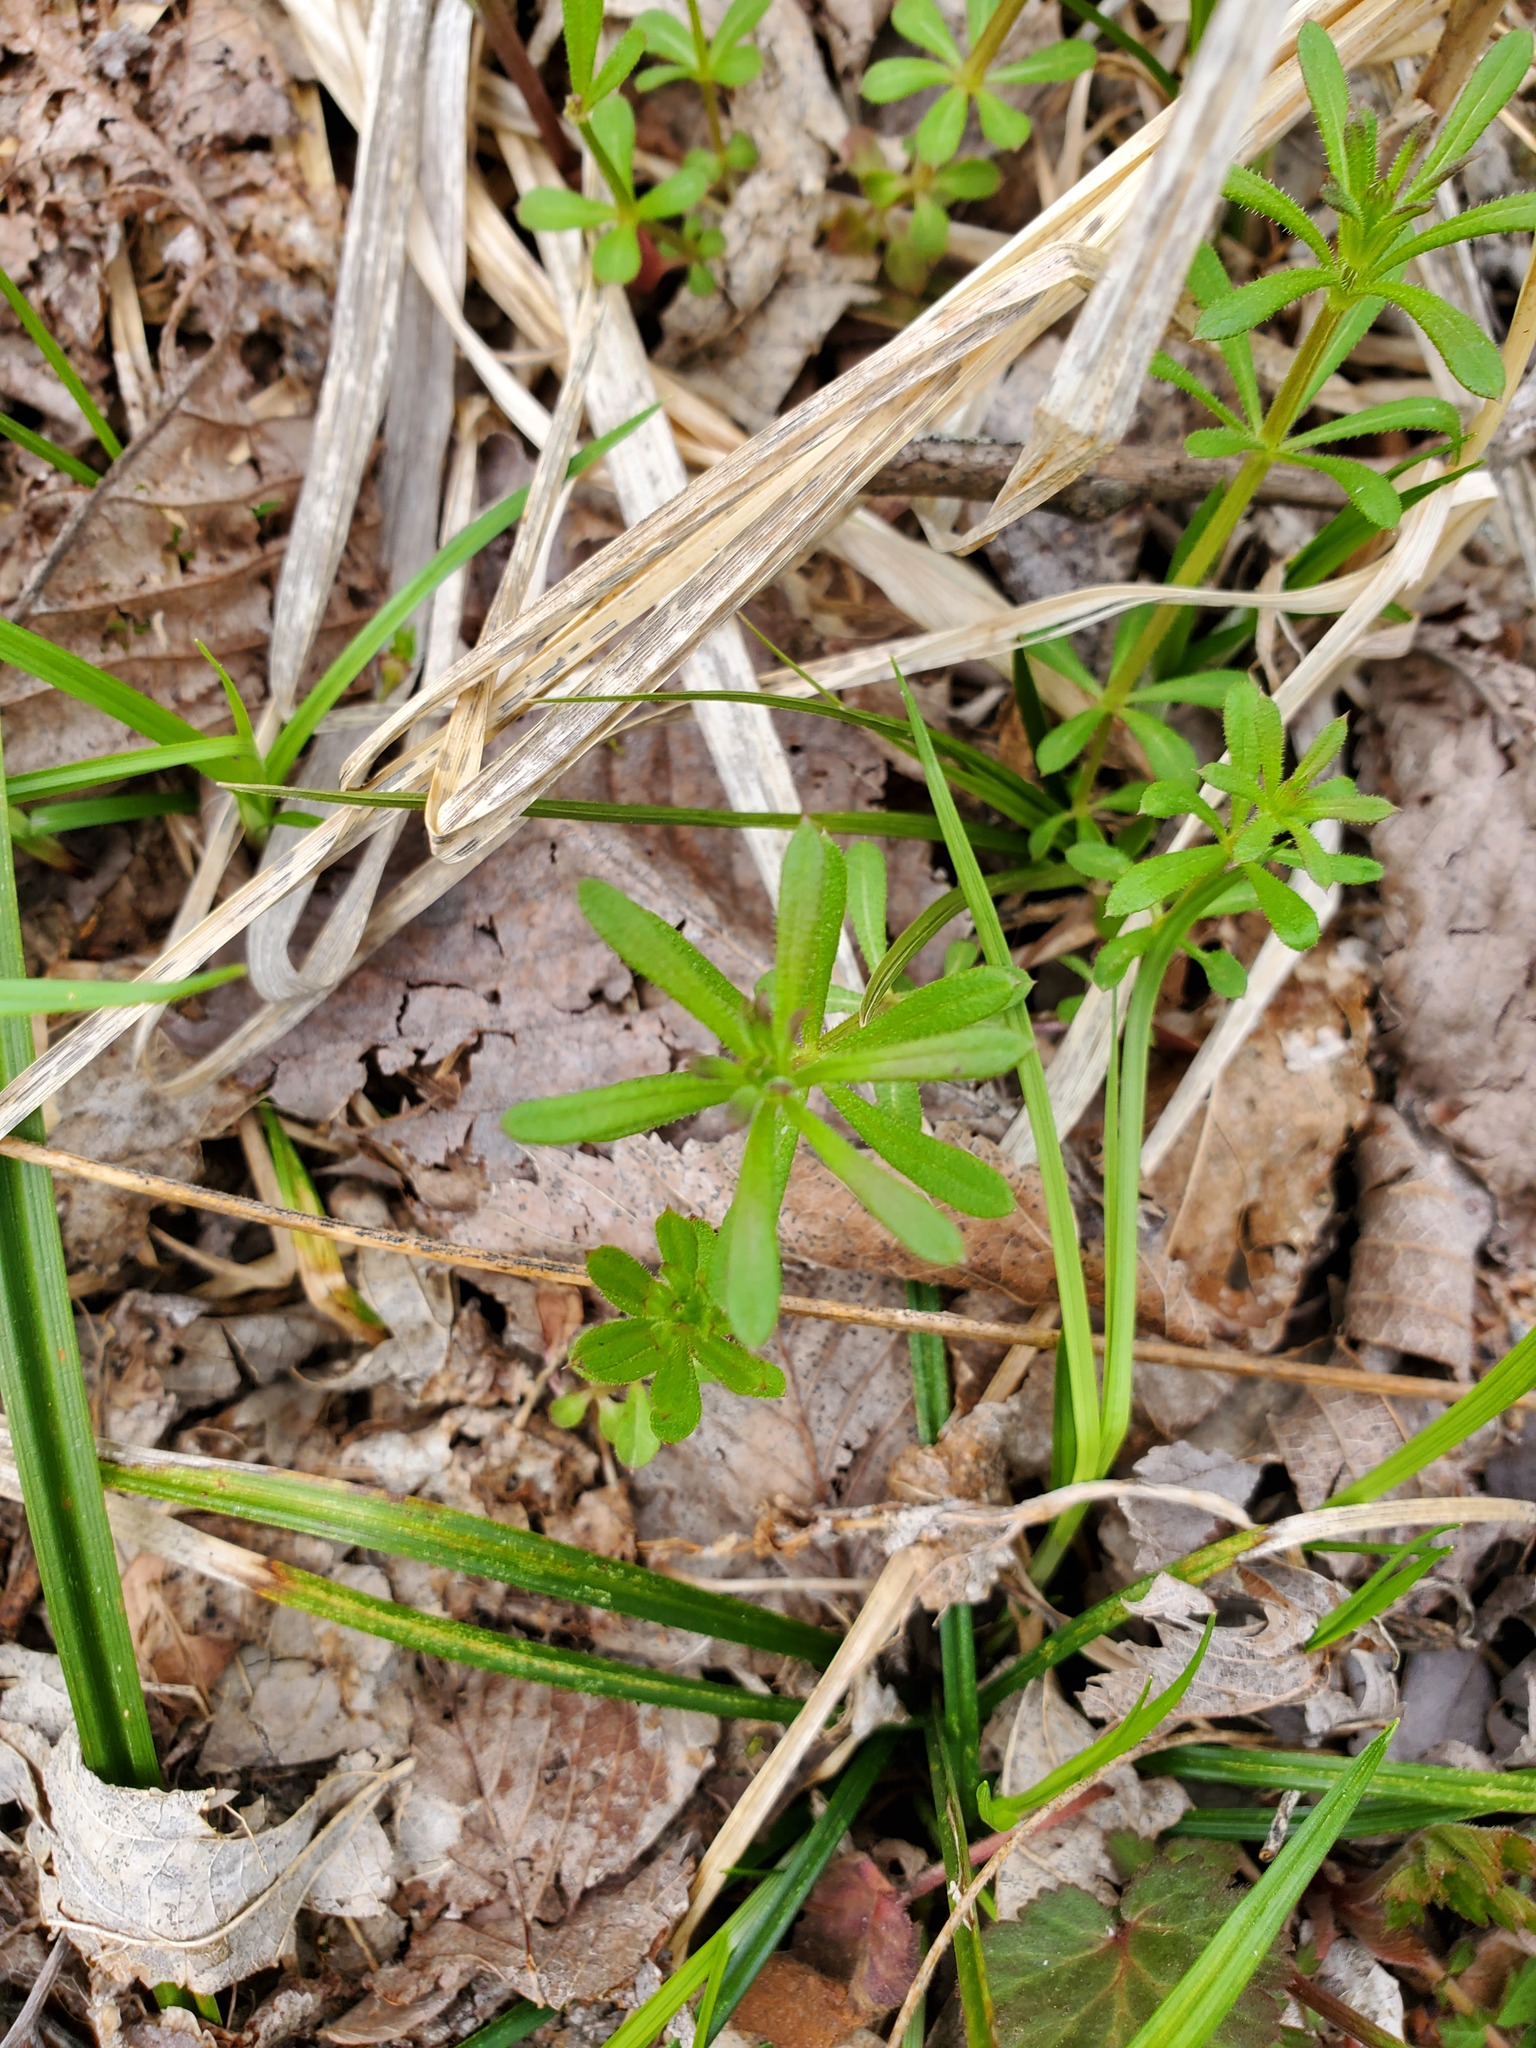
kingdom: Plantae
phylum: Tracheophyta
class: Magnoliopsida
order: Gentianales
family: Rubiaceae
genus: Galium
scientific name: Galium aparine
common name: Cleavers
